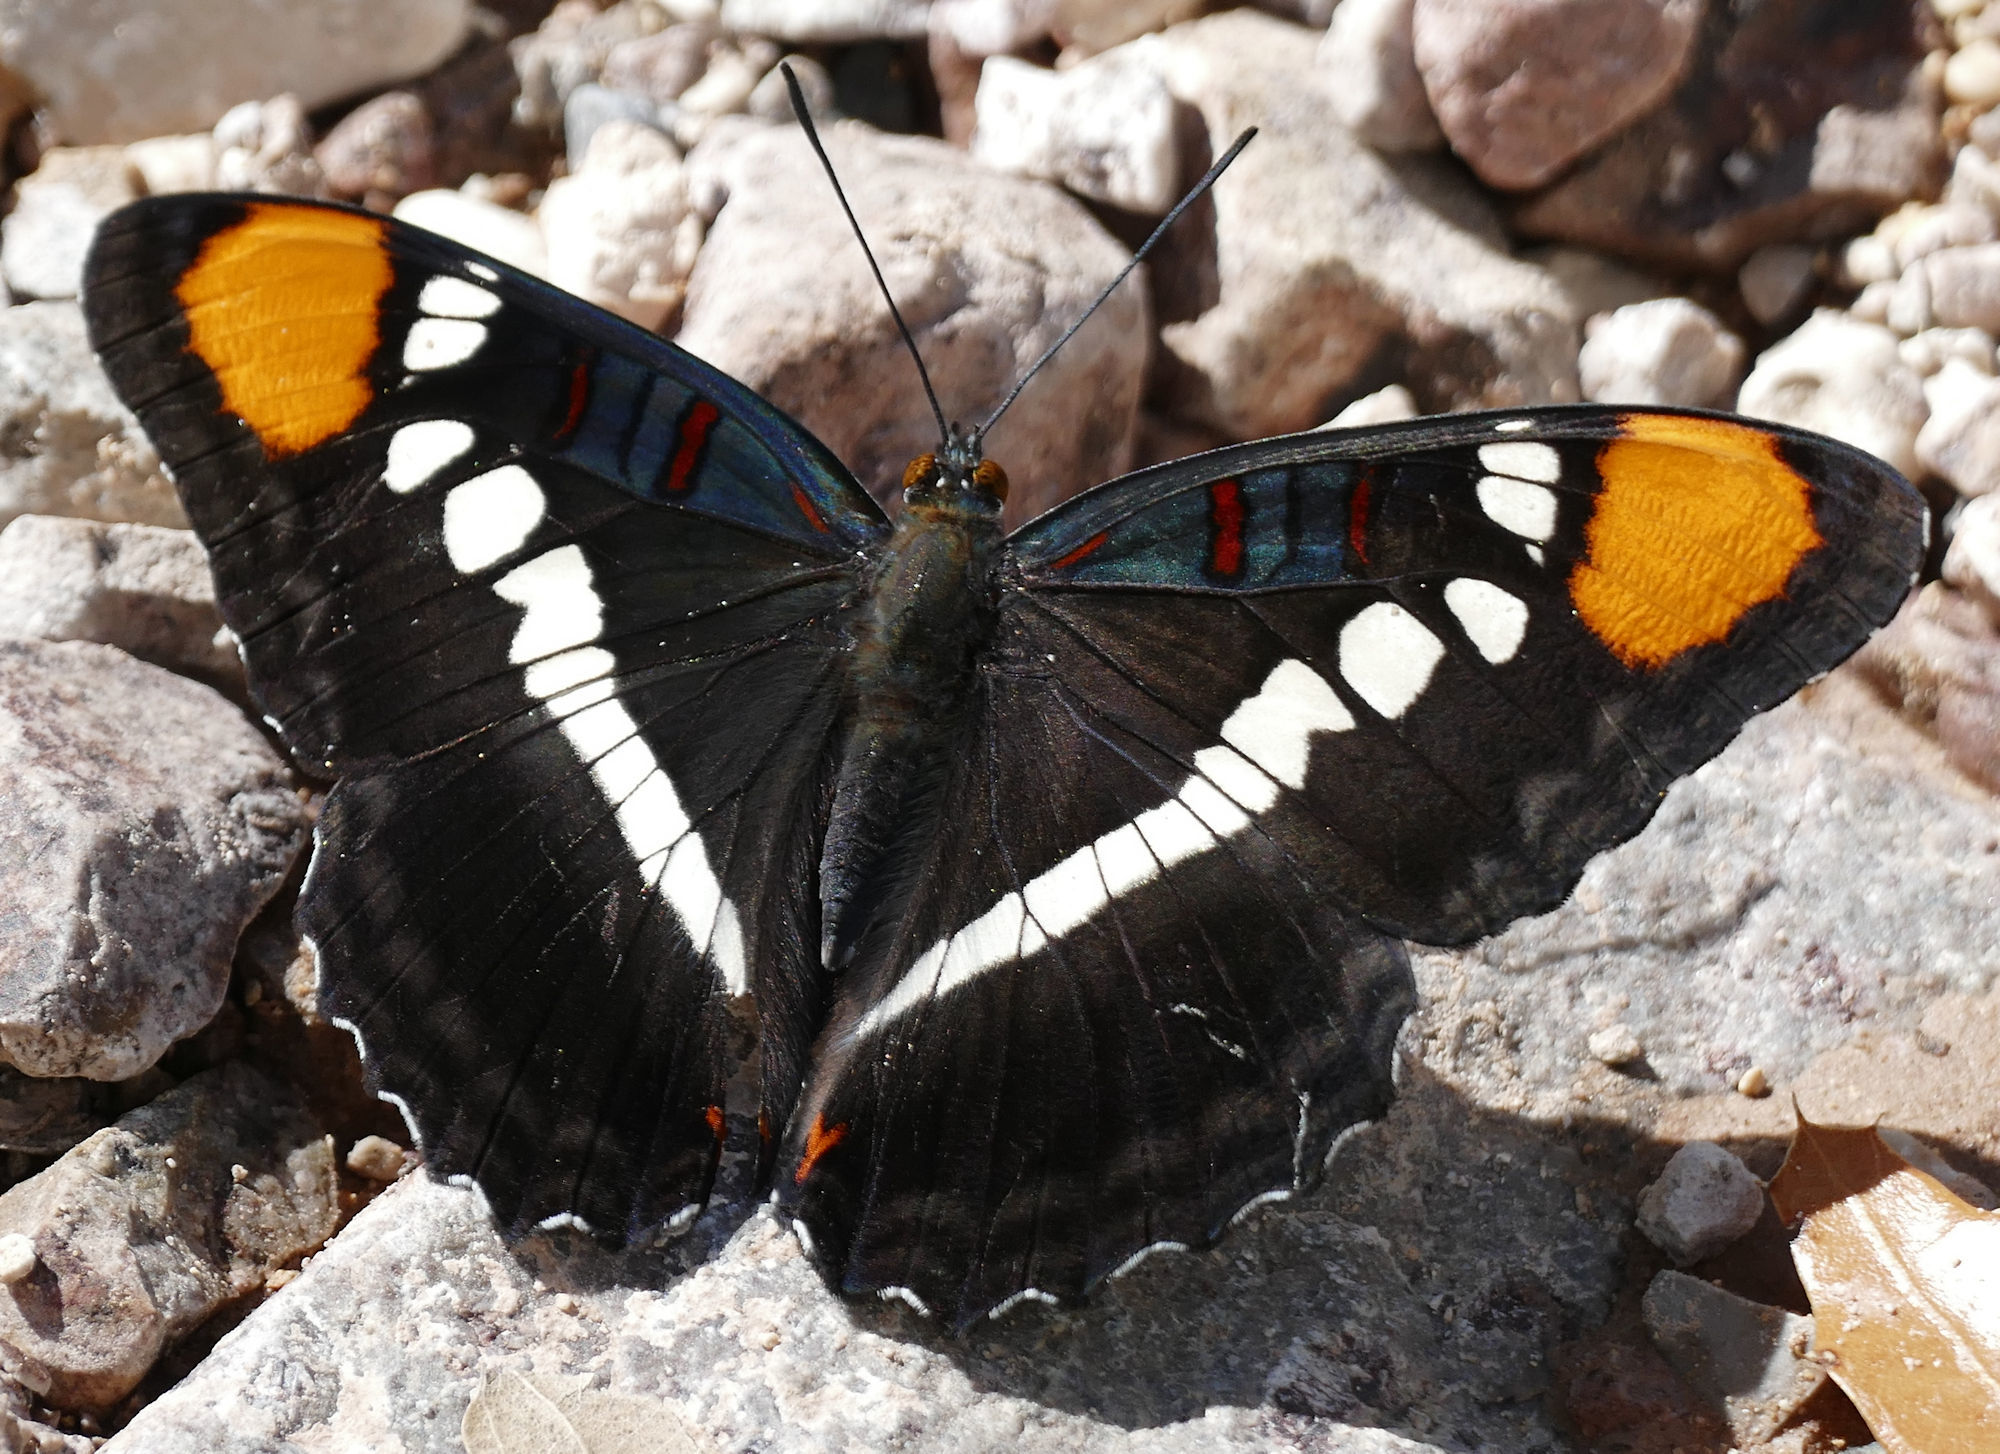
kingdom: Animalia
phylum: Arthropoda
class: Insecta
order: Lepidoptera
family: Nymphalidae
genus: Limenitis
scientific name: Limenitis bredowii
